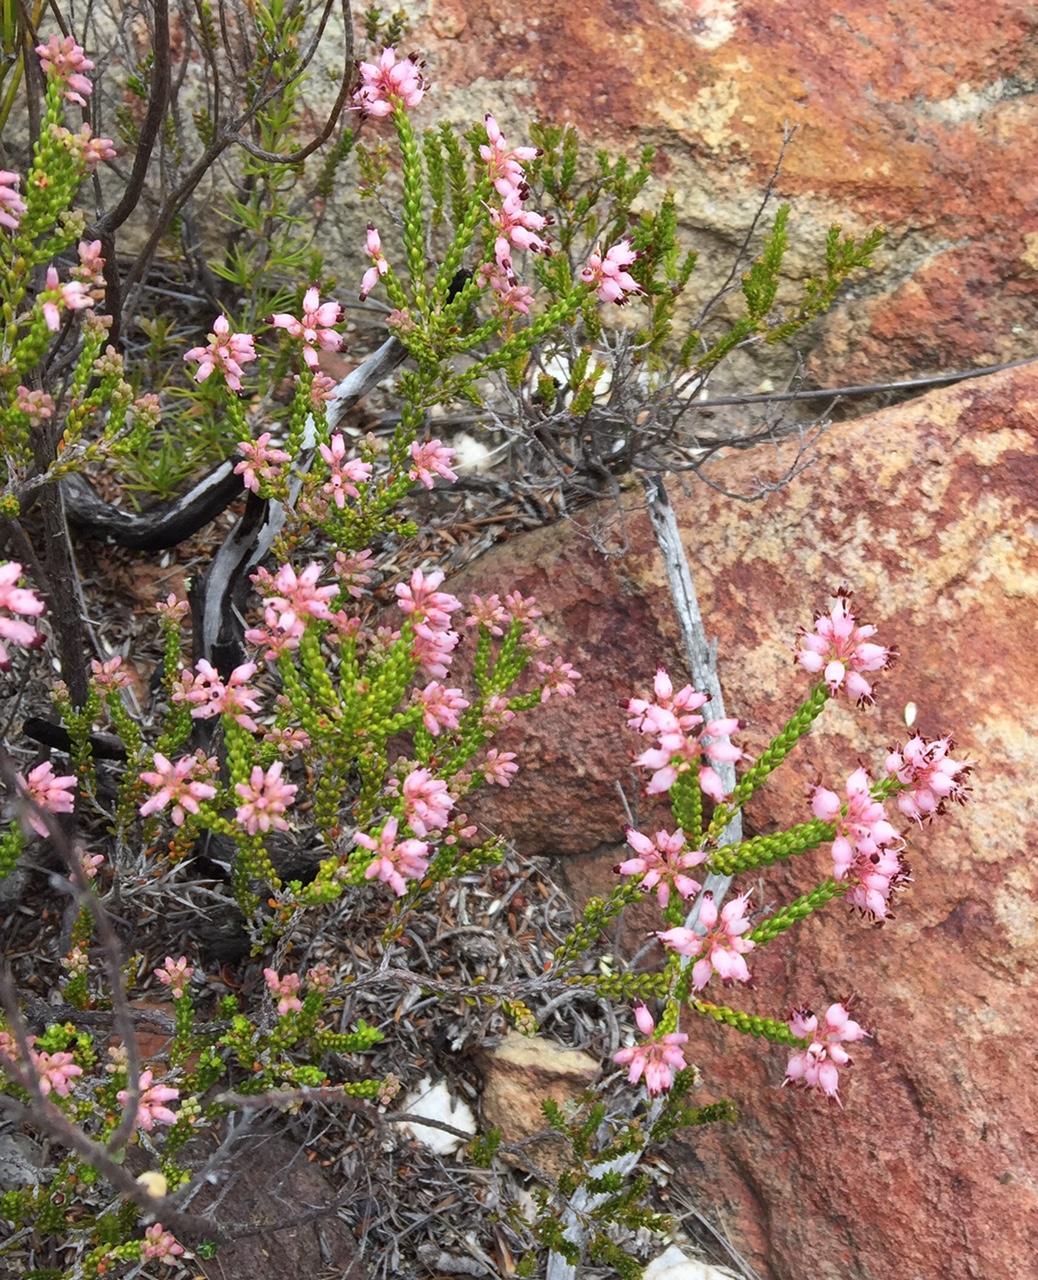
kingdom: Plantae
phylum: Tracheophyta
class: Magnoliopsida
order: Ericales
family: Ericaceae
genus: Erica
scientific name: Erica demissa
